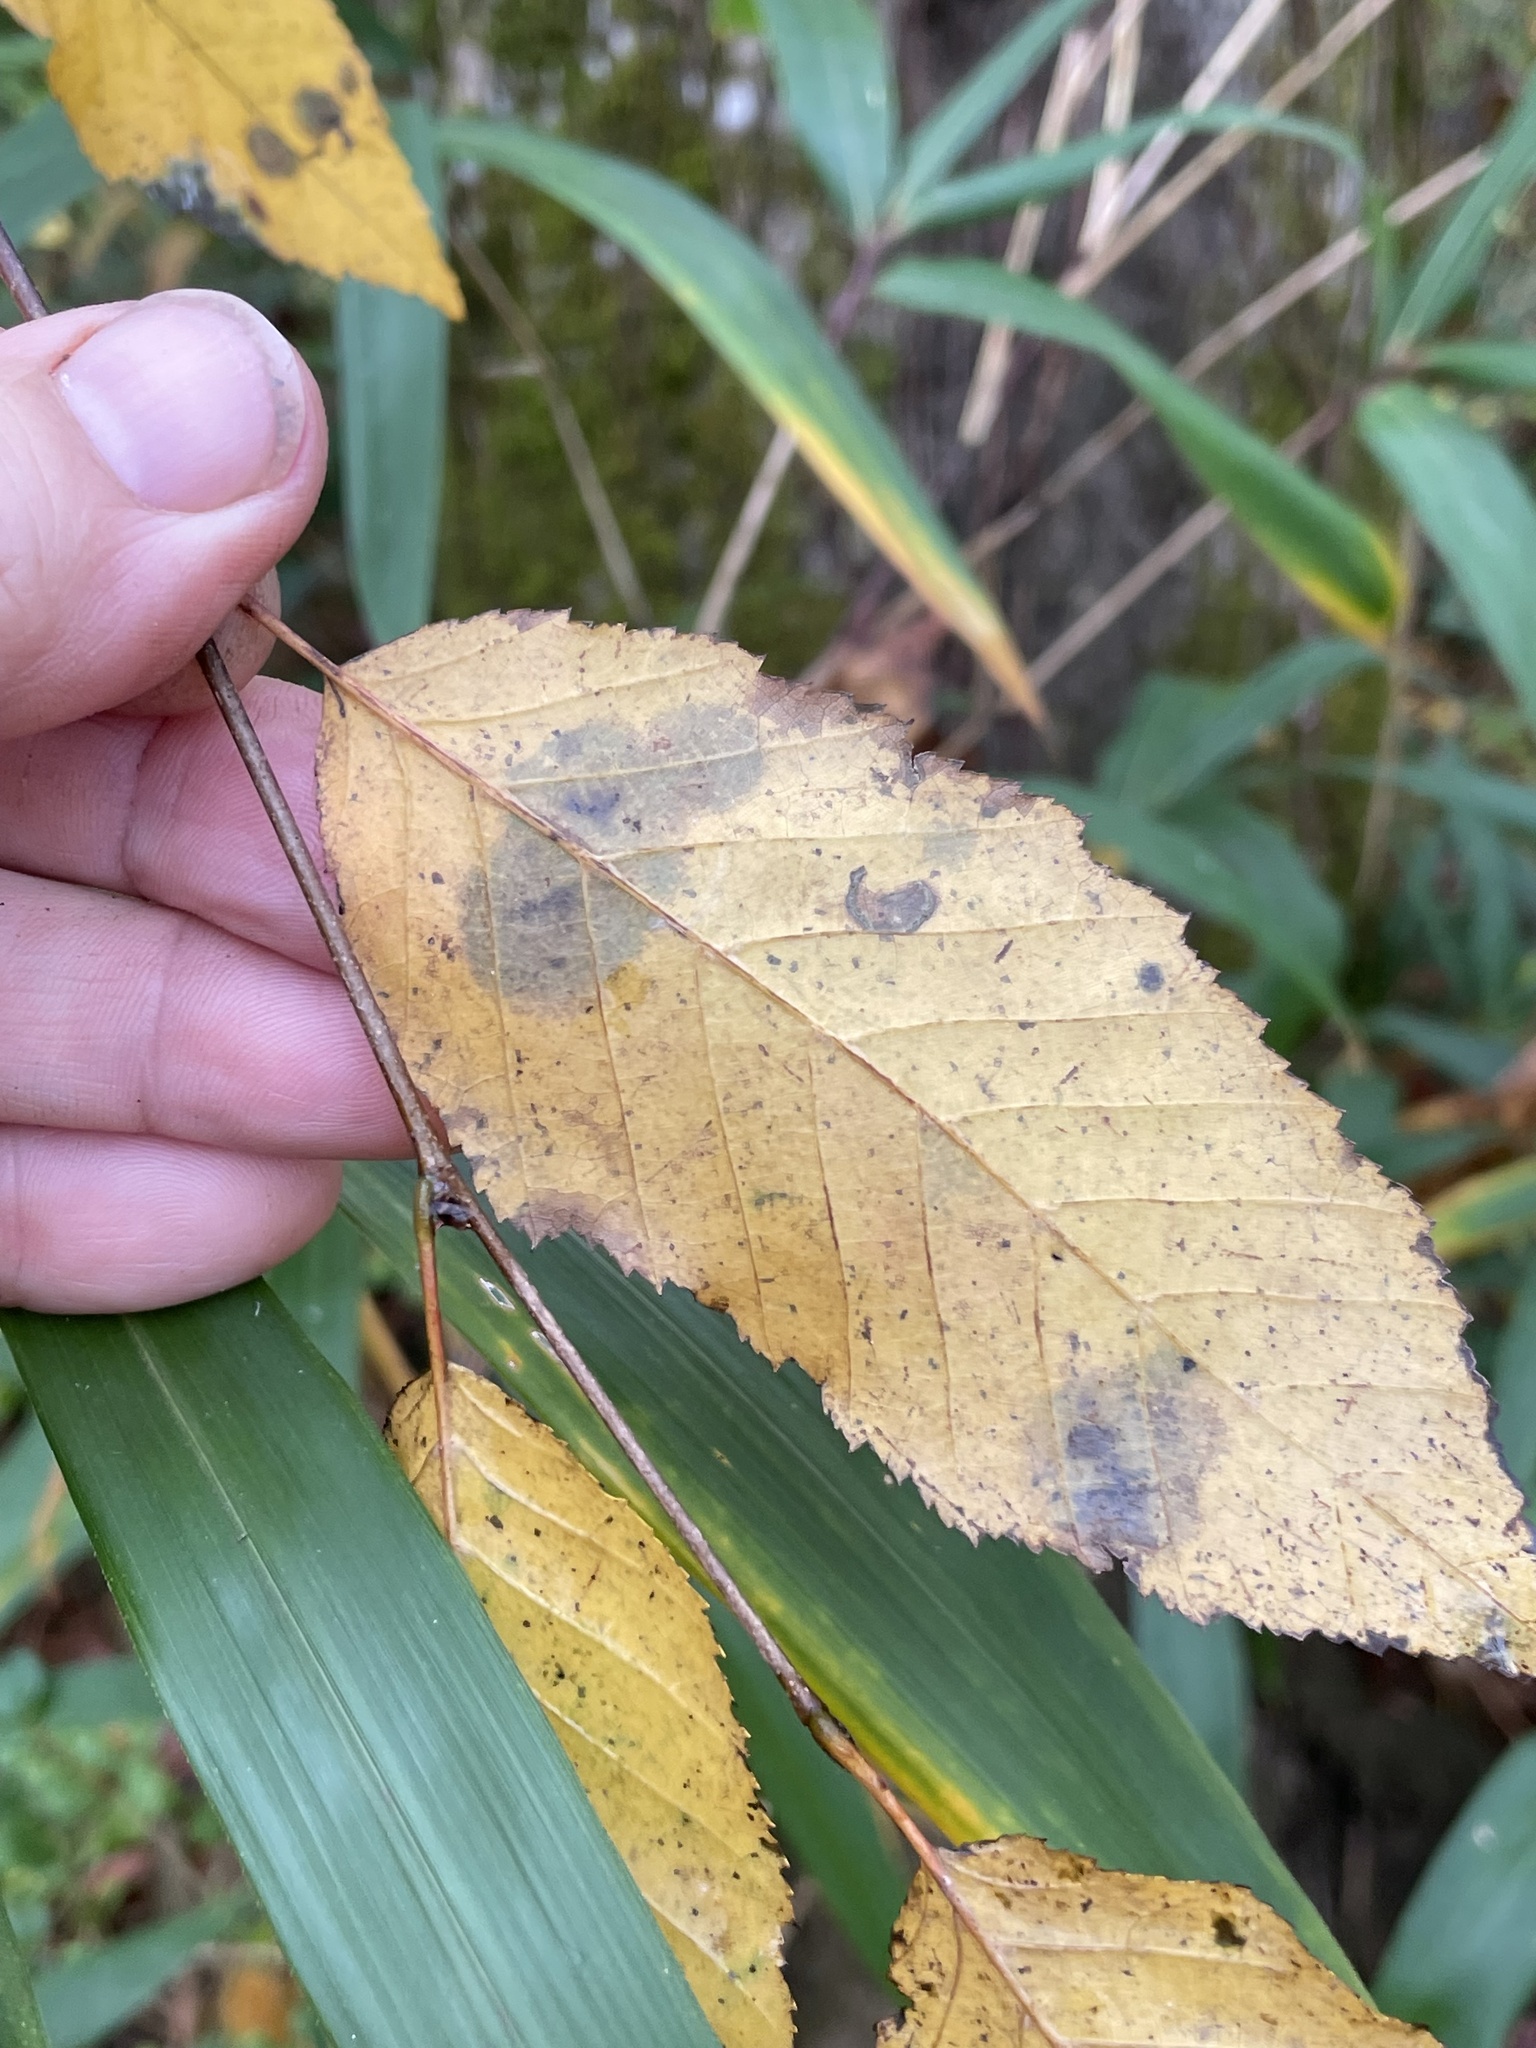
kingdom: Plantae
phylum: Tracheophyta
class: Magnoliopsida
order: Fagales
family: Betulaceae
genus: Carpinus
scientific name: Carpinus caroliniana
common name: American hornbeam
